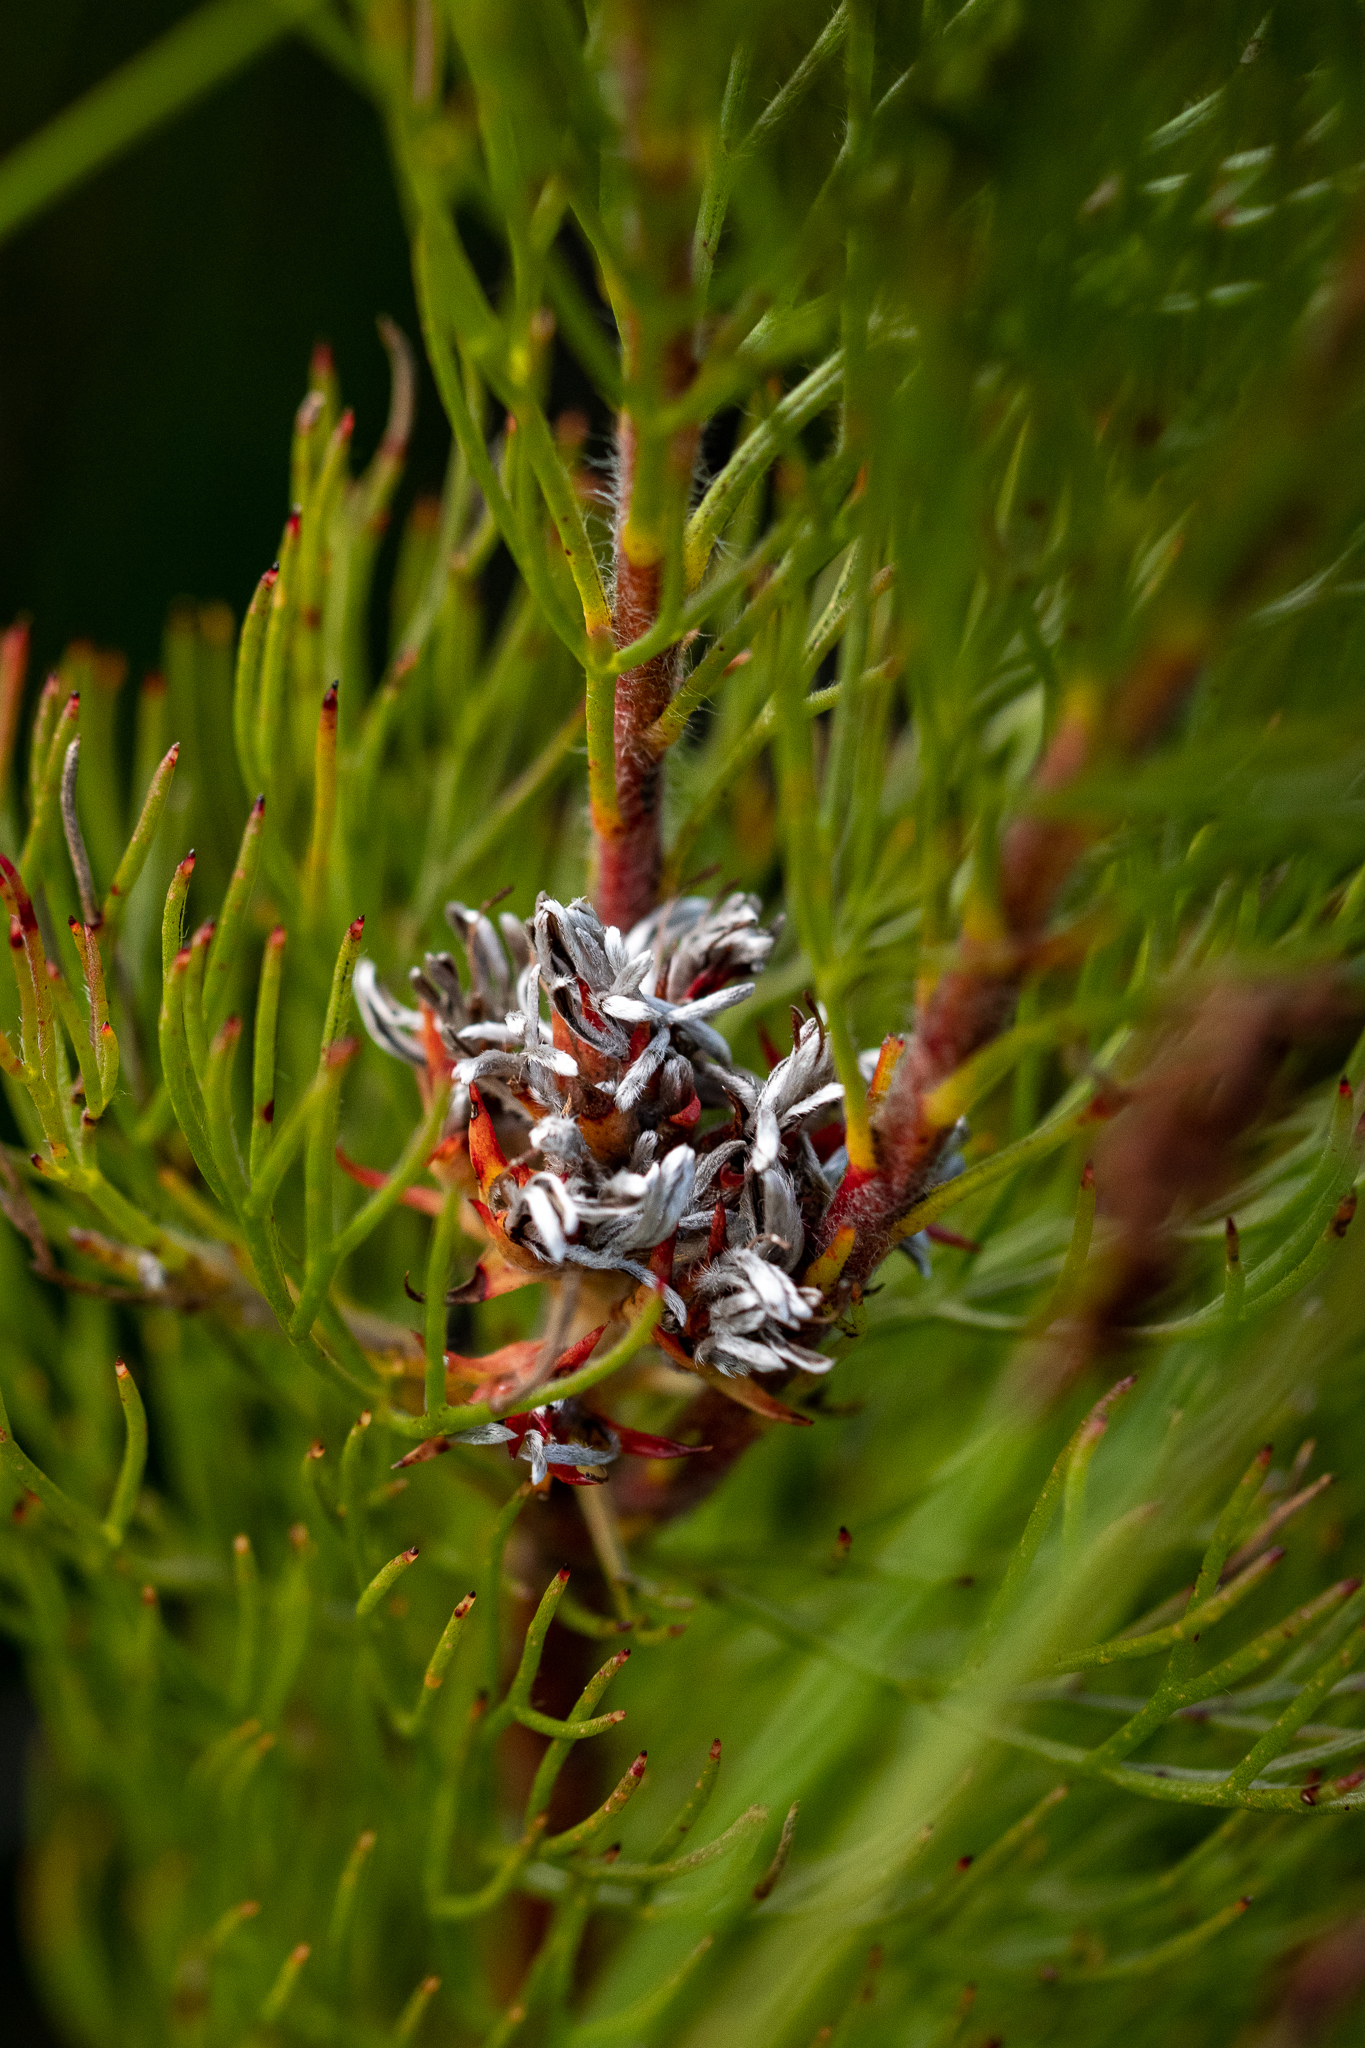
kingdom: Plantae
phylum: Tracheophyta
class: Magnoliopsida
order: Proteales
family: Proteaceae
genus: Serruria
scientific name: Serruria ascendens
